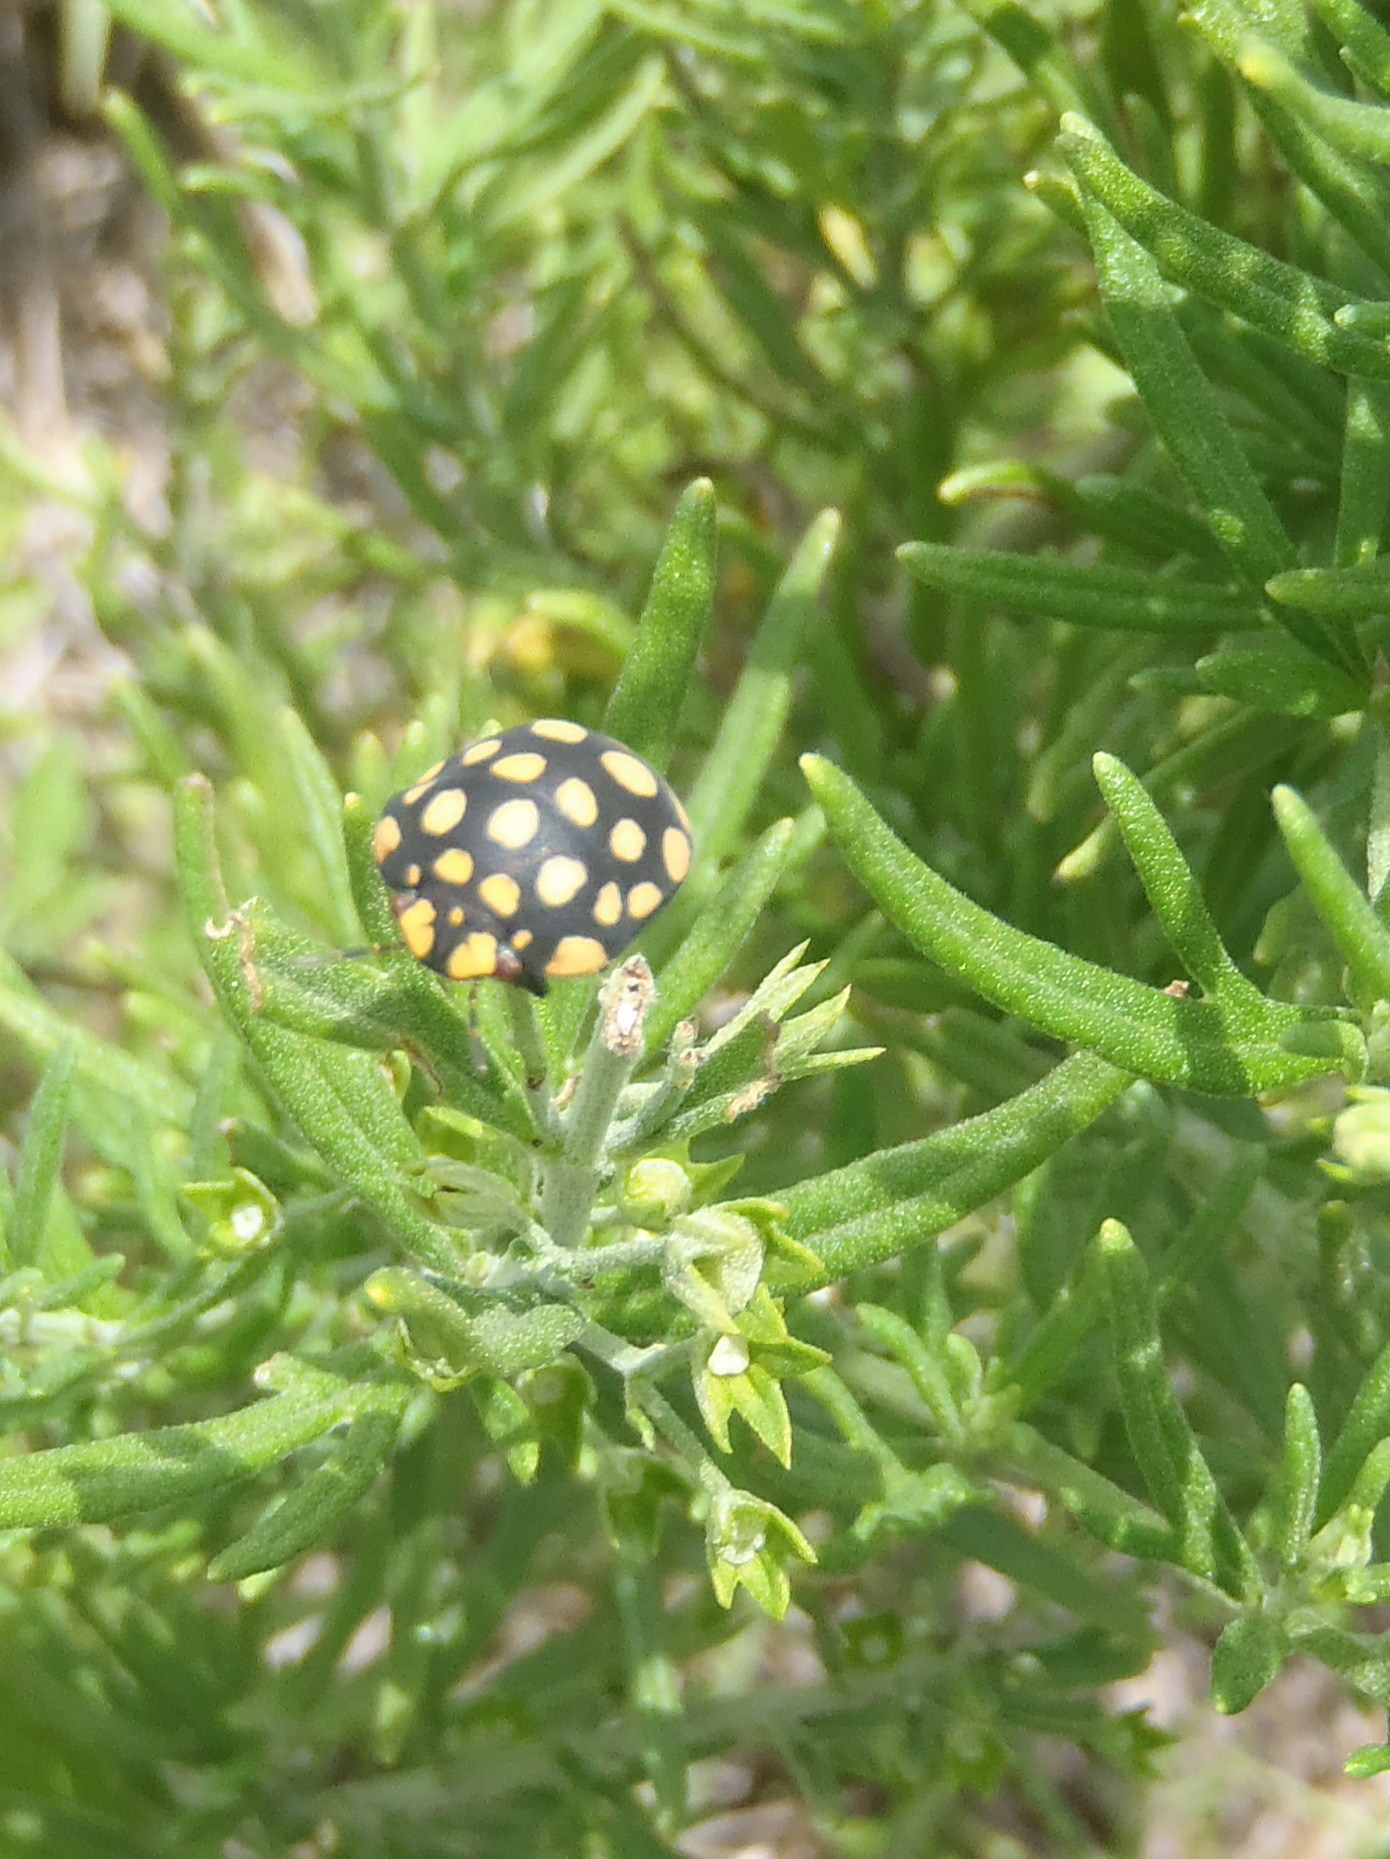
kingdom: Animalia
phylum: Arthropoda
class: Insecta
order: Hemiptera
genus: Steganocerus
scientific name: Steganocerus multipunctatus
